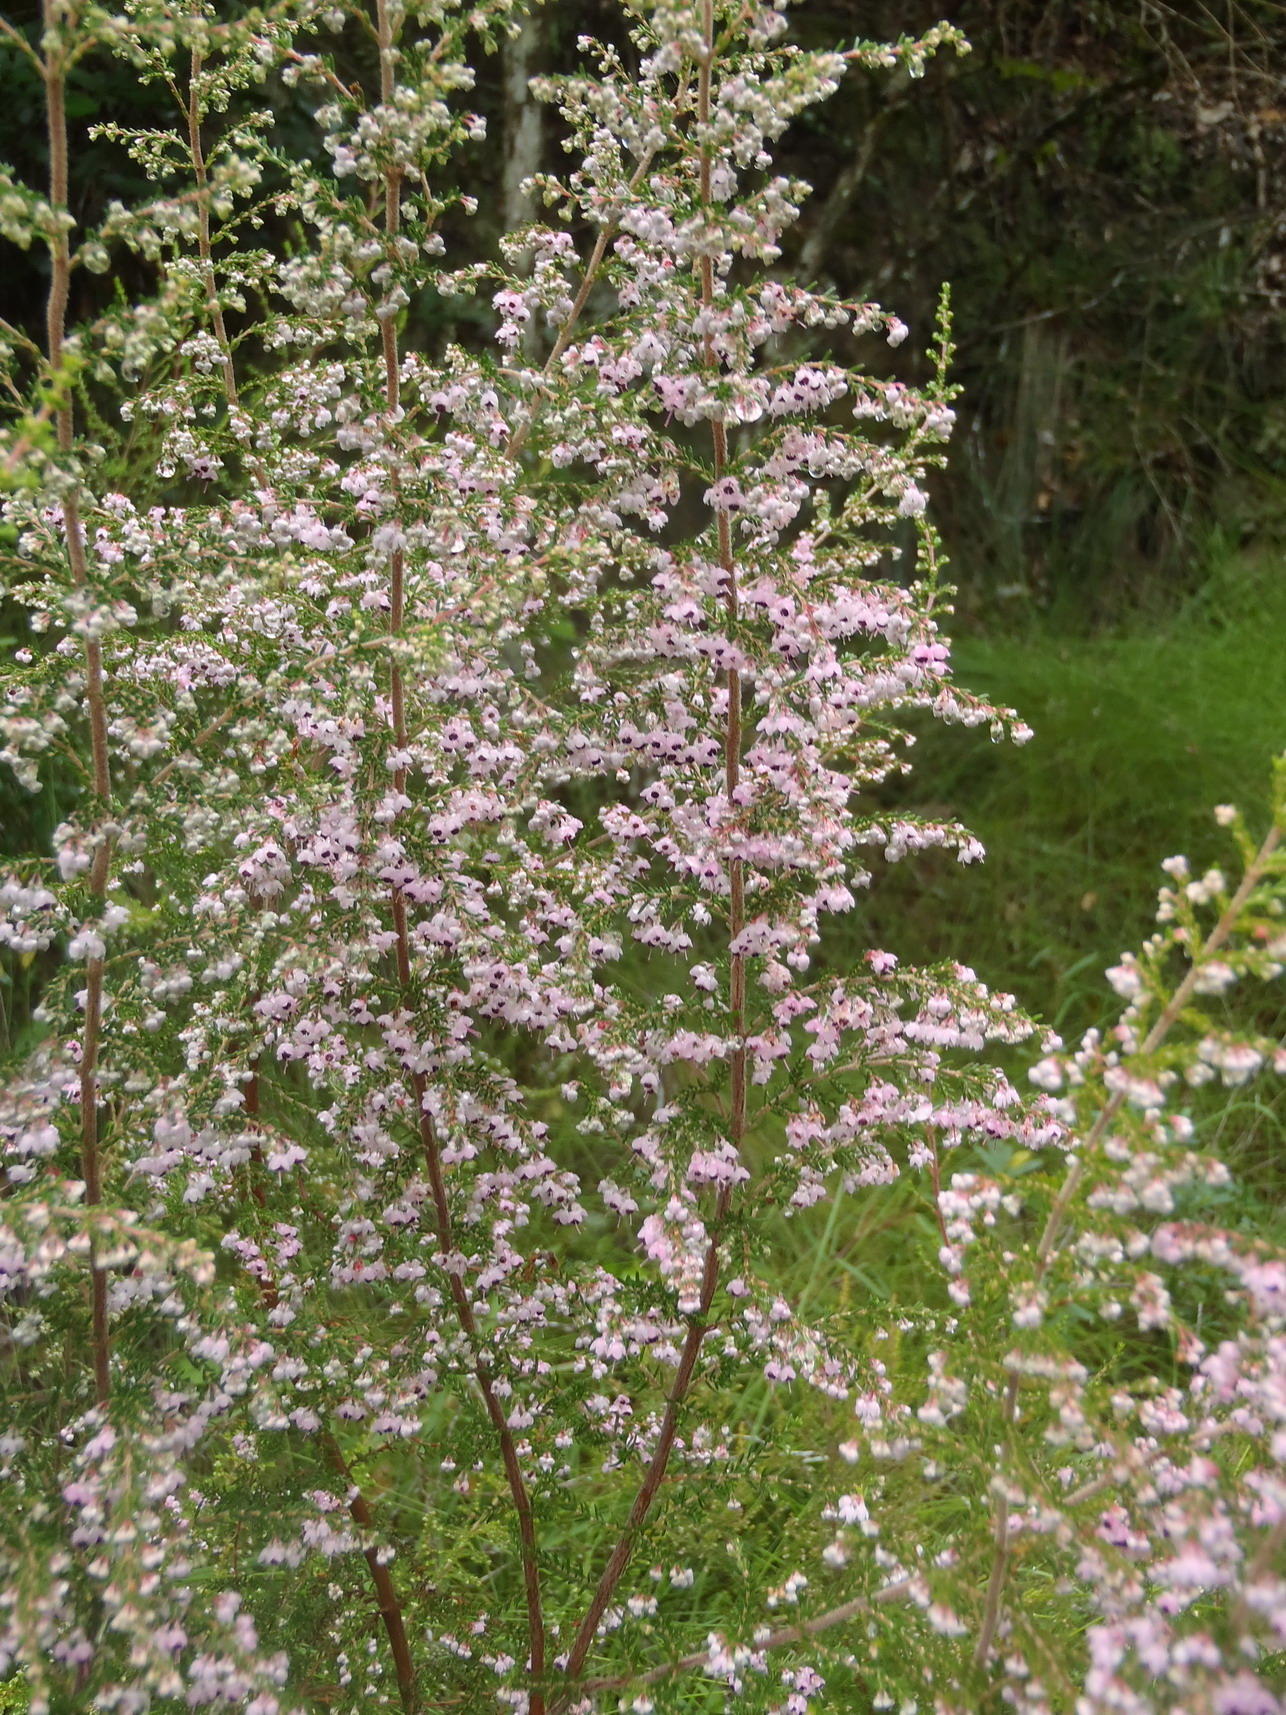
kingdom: Plantae
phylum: Tracheophyta
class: Magnoliopsida
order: Ericales
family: Ericaceae
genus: Erica
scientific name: Erica sparsa
